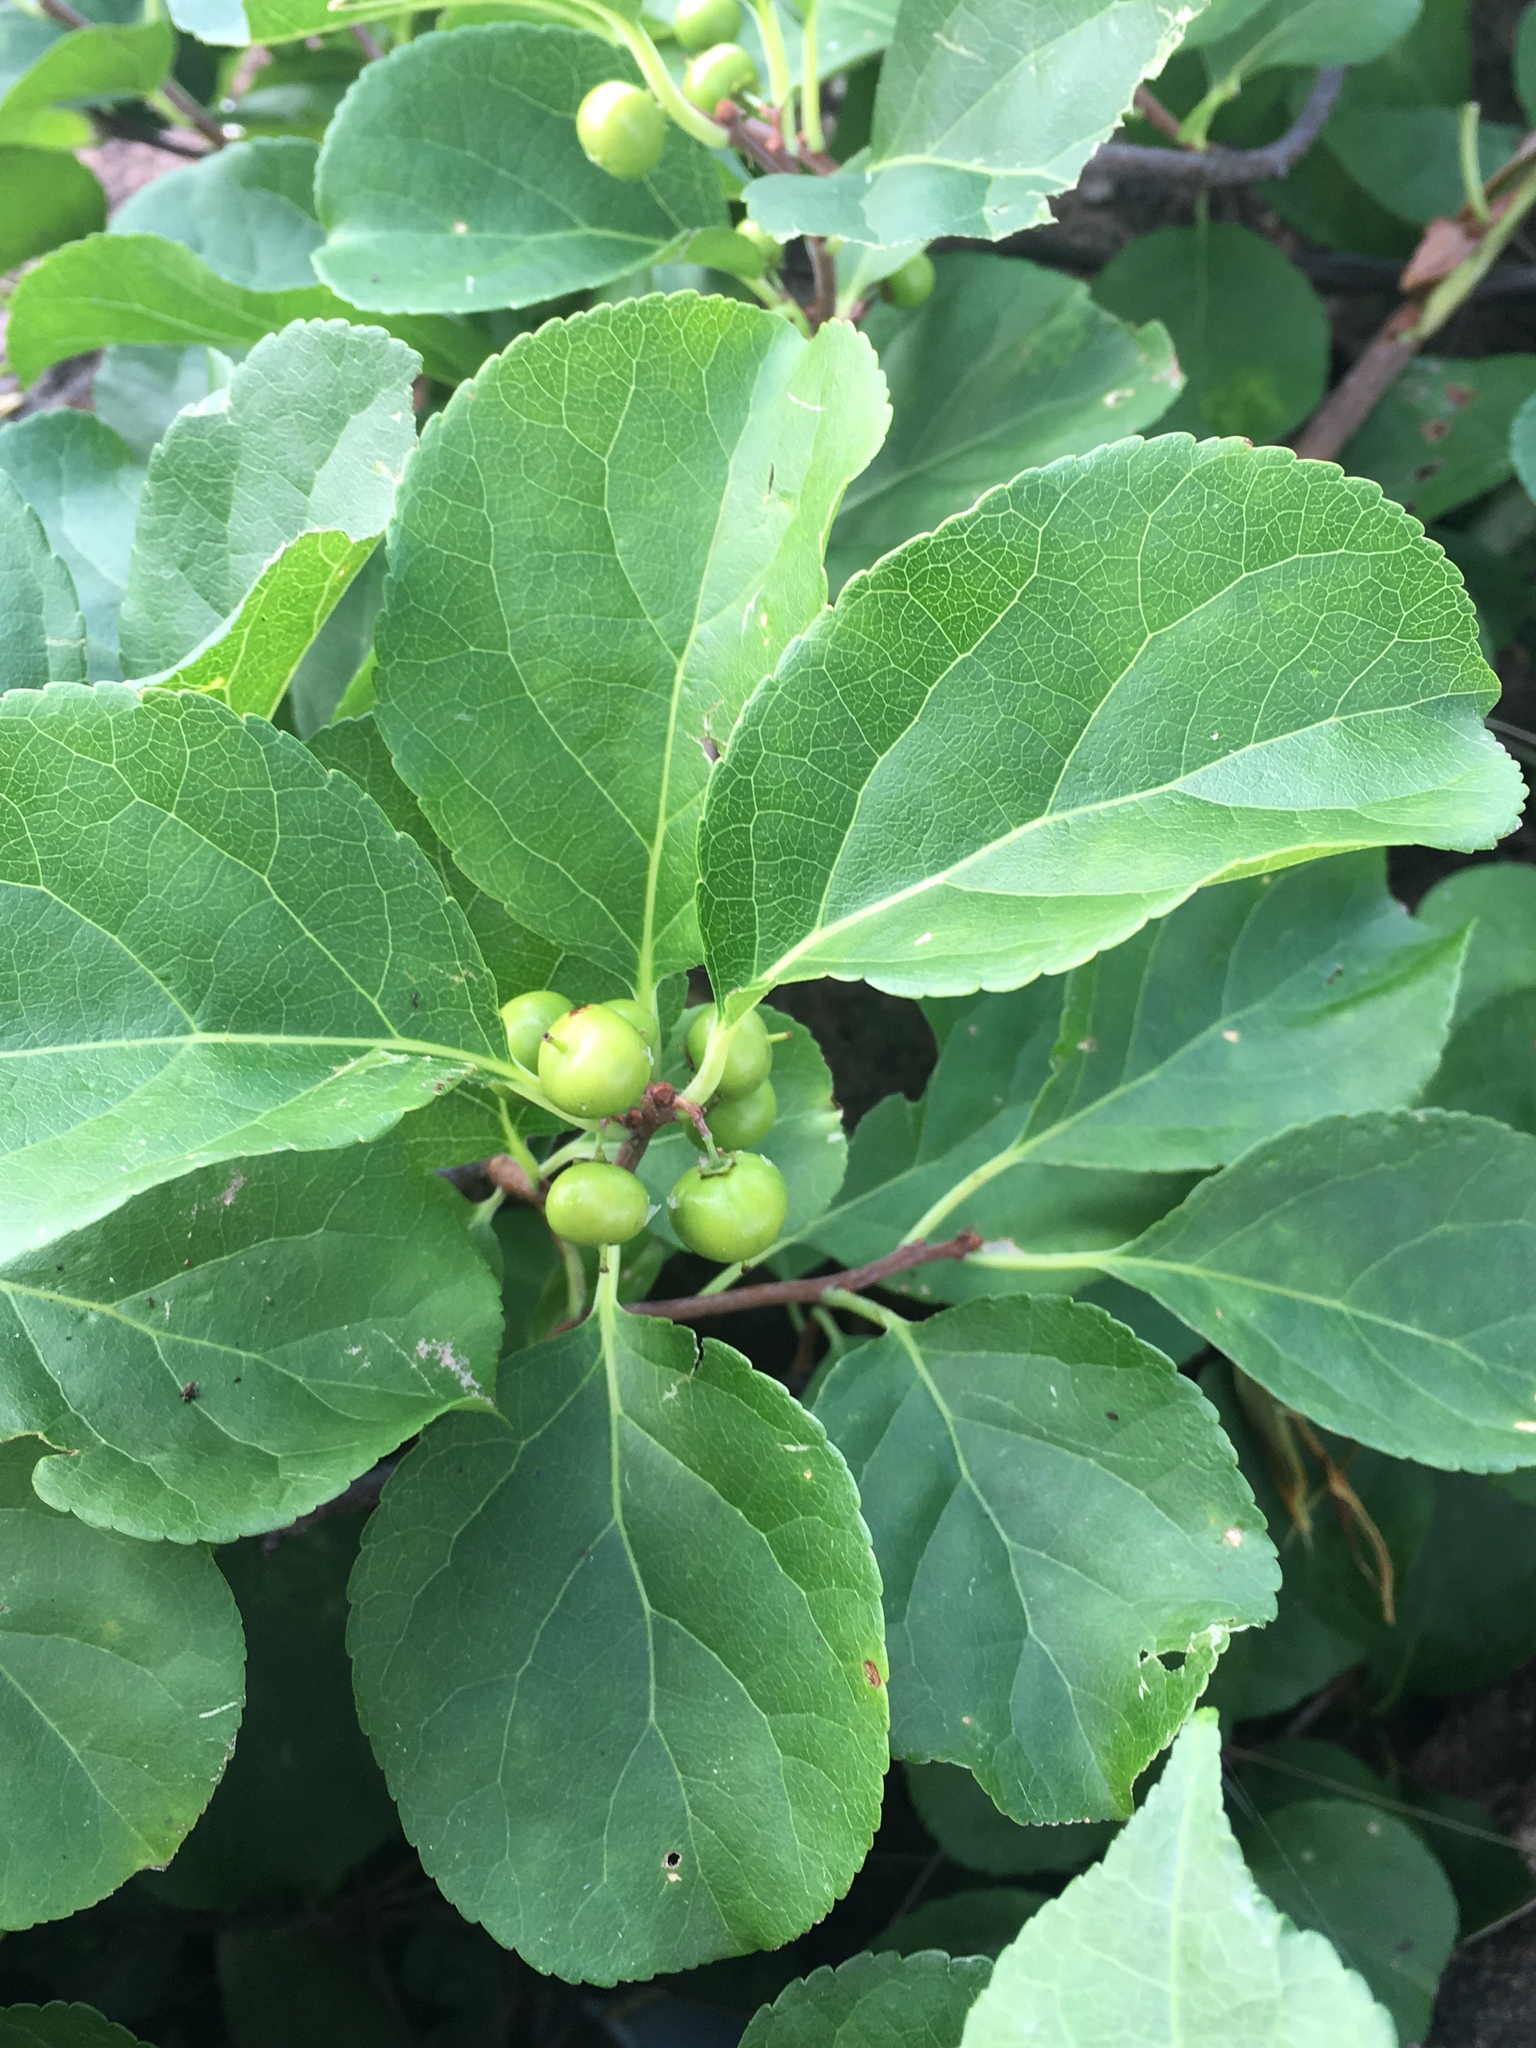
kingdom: Plantae
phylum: Tracheophyta
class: Magnoliopsida
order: Celastrales
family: Celastraceae
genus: Celastrus
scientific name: Celastrus orbiculatus
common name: Oriental bittersweet
